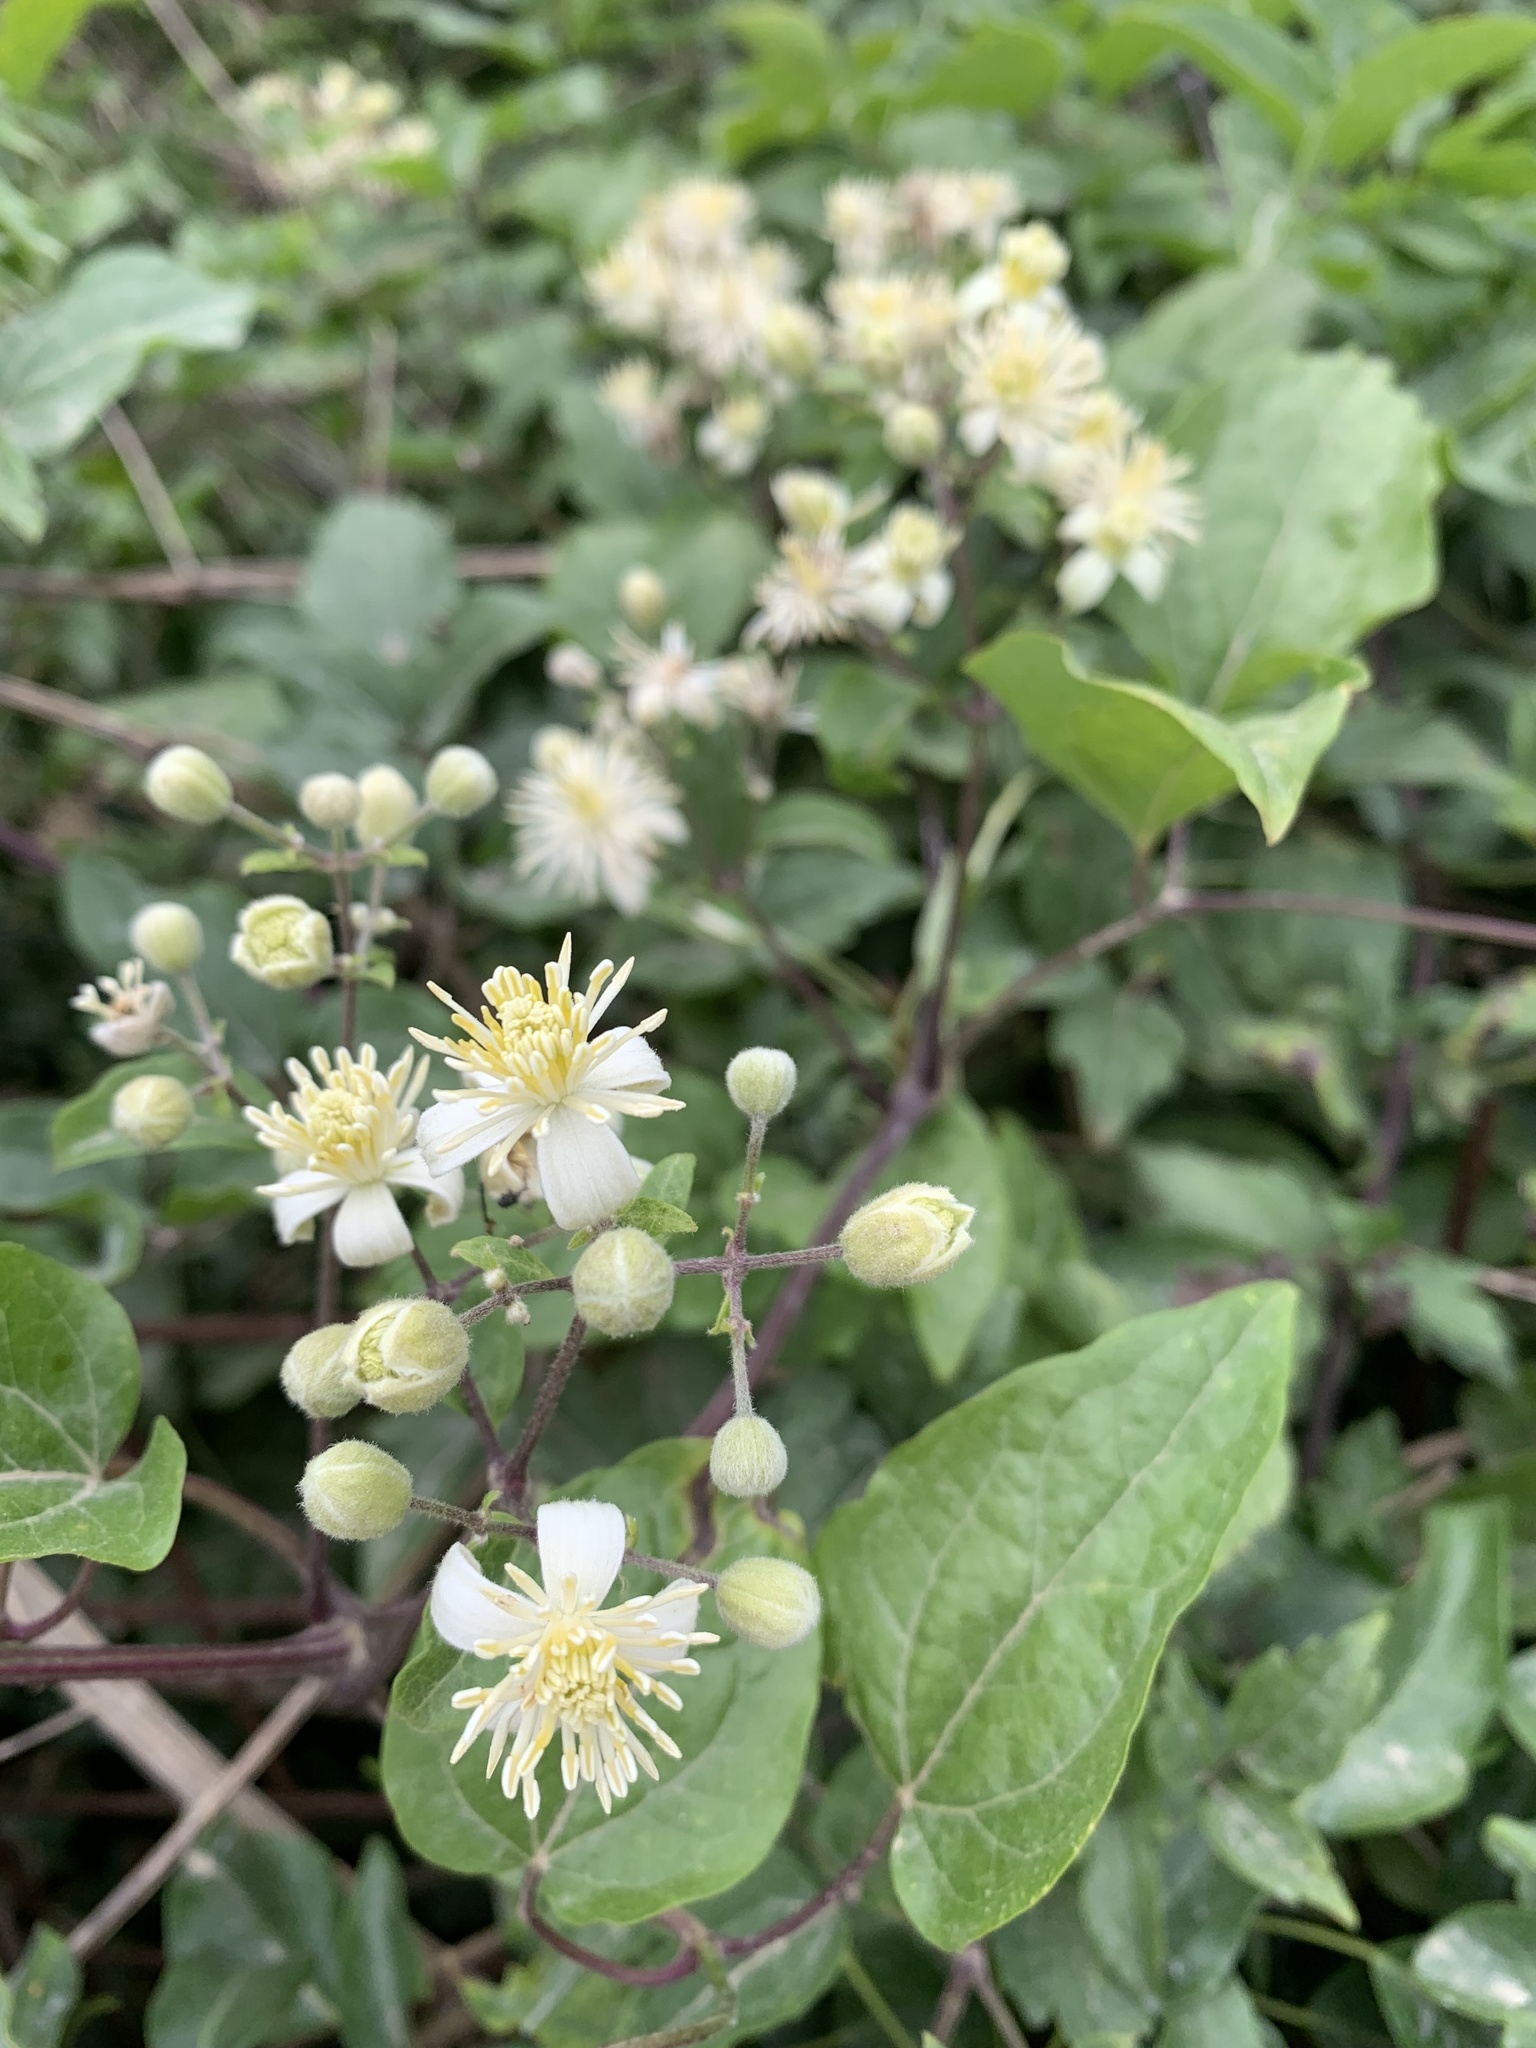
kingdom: Plantae
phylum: Tracheophyta
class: Magnoliopsida
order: Ranunculales
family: Ranunculaceae
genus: Clematis
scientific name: Clematis vitalba
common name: Evergreen clematis
